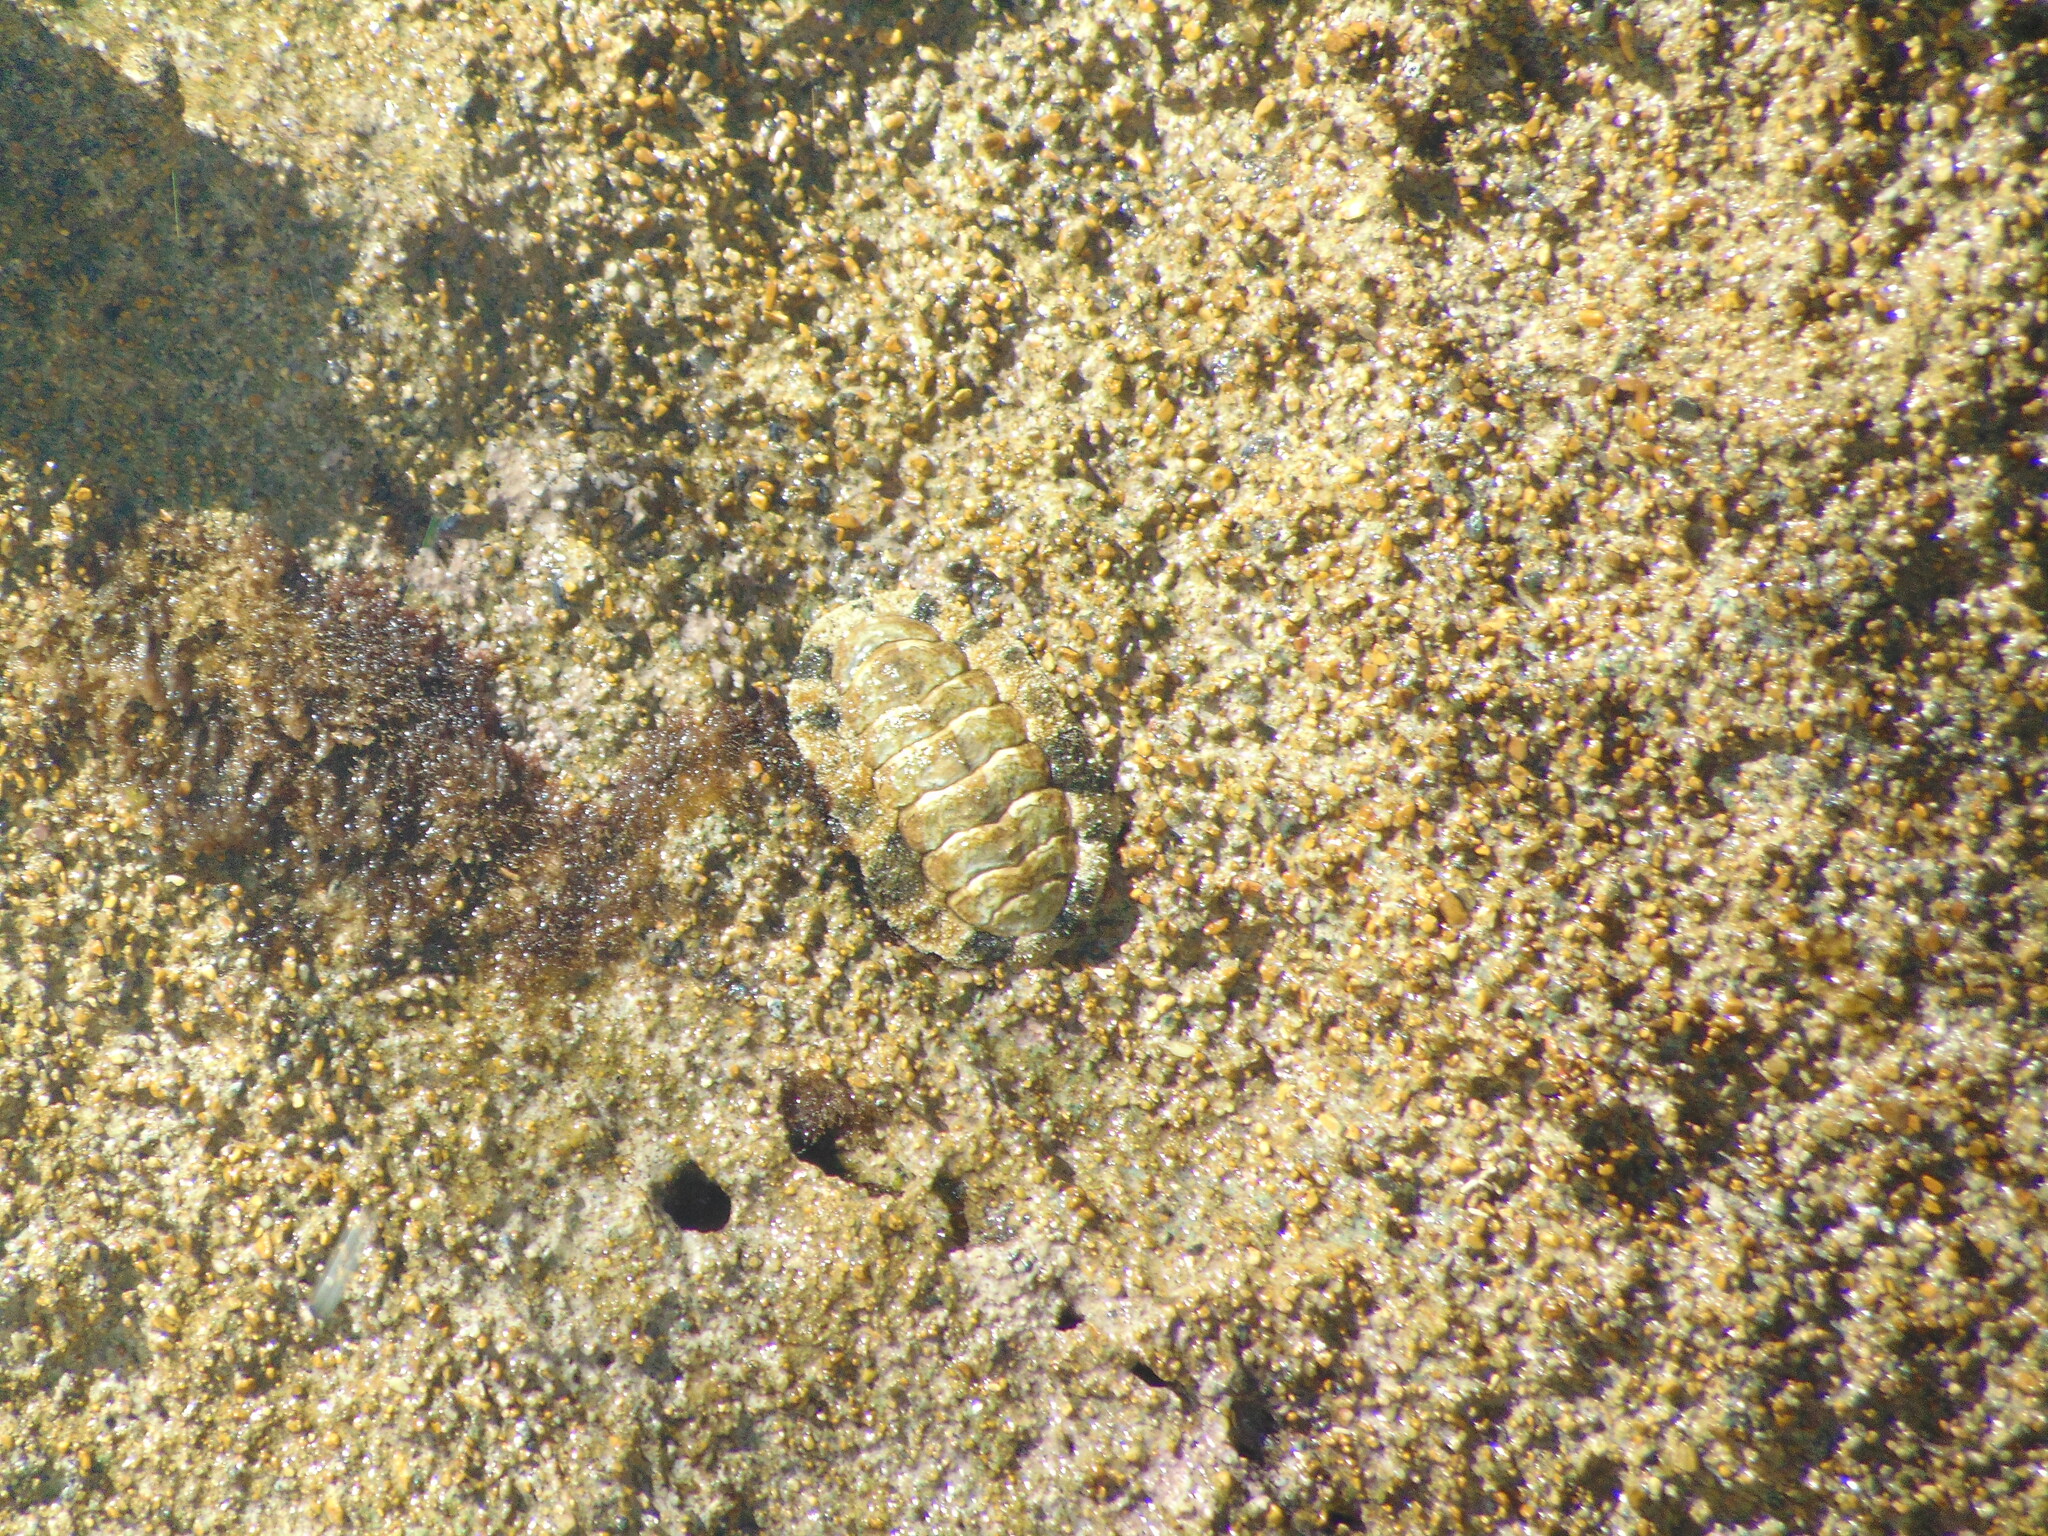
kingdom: Animalia
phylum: Mollusca
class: Polyplacophora
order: Chitonida
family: Chitonidae
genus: Acanthopleura
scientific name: Acanthopleura granulata
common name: West indian fuzzy chiton
